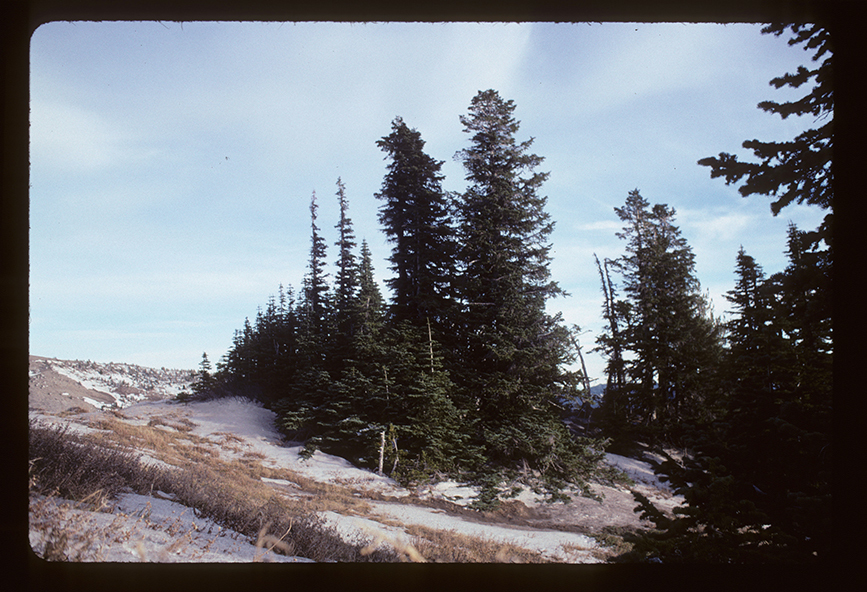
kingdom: Plantae
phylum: Tracheophyta
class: Pinopsida
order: Pinales
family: Pinaceae
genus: Abies
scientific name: Abies lasiocarpa
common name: Subalpine fir
